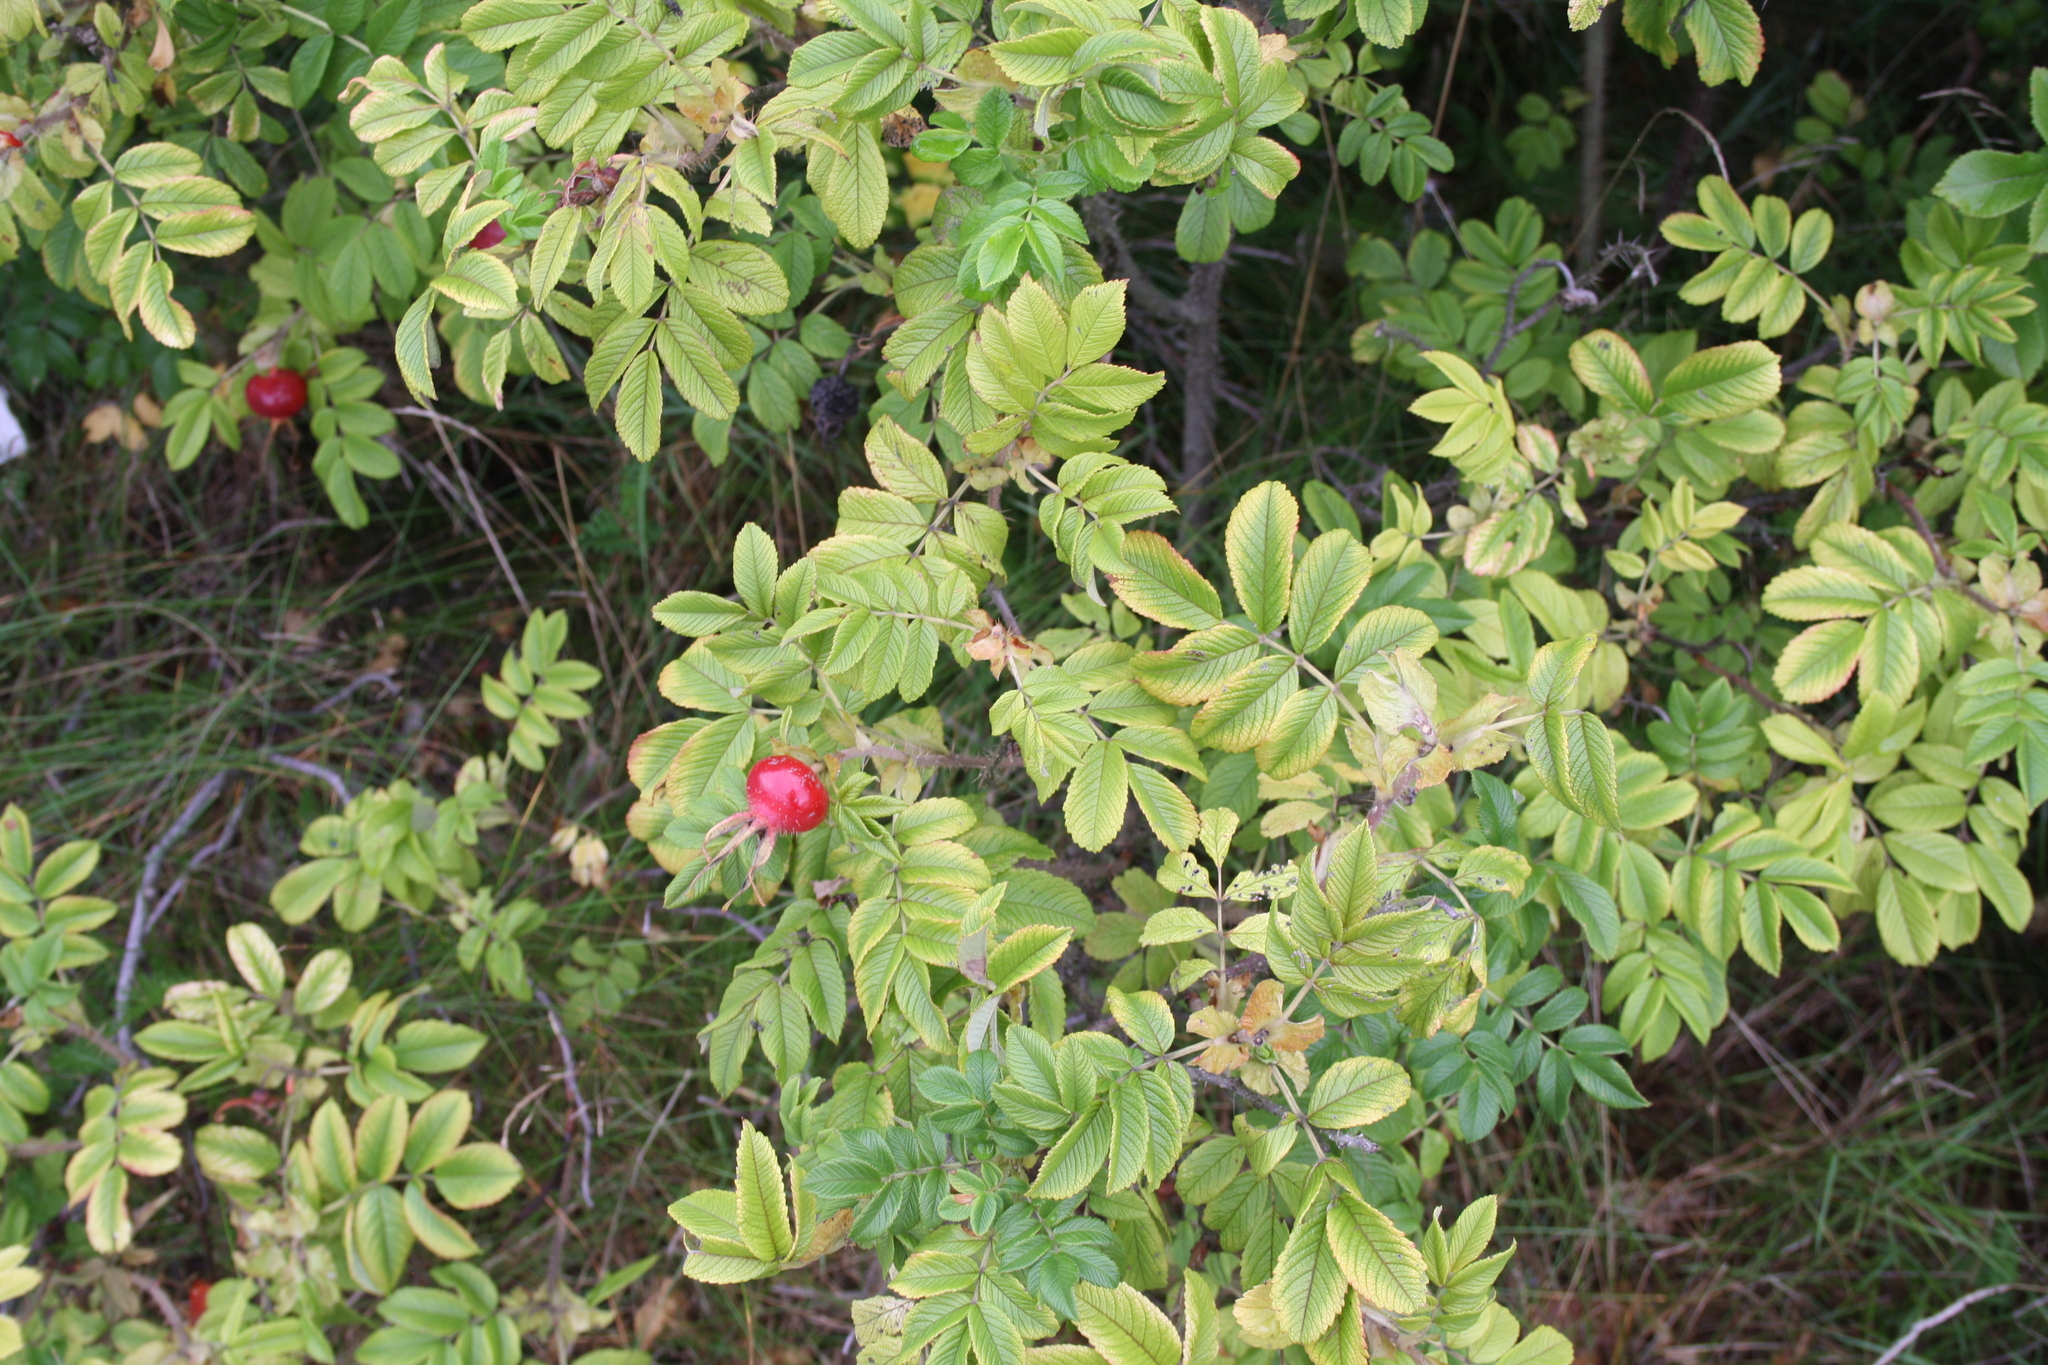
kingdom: Plantae
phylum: Tracheophyta
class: Magnoliopsida
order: Rosales
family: Rosaceae
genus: Rosa
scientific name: Rosa rugosa
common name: Japanese rose
